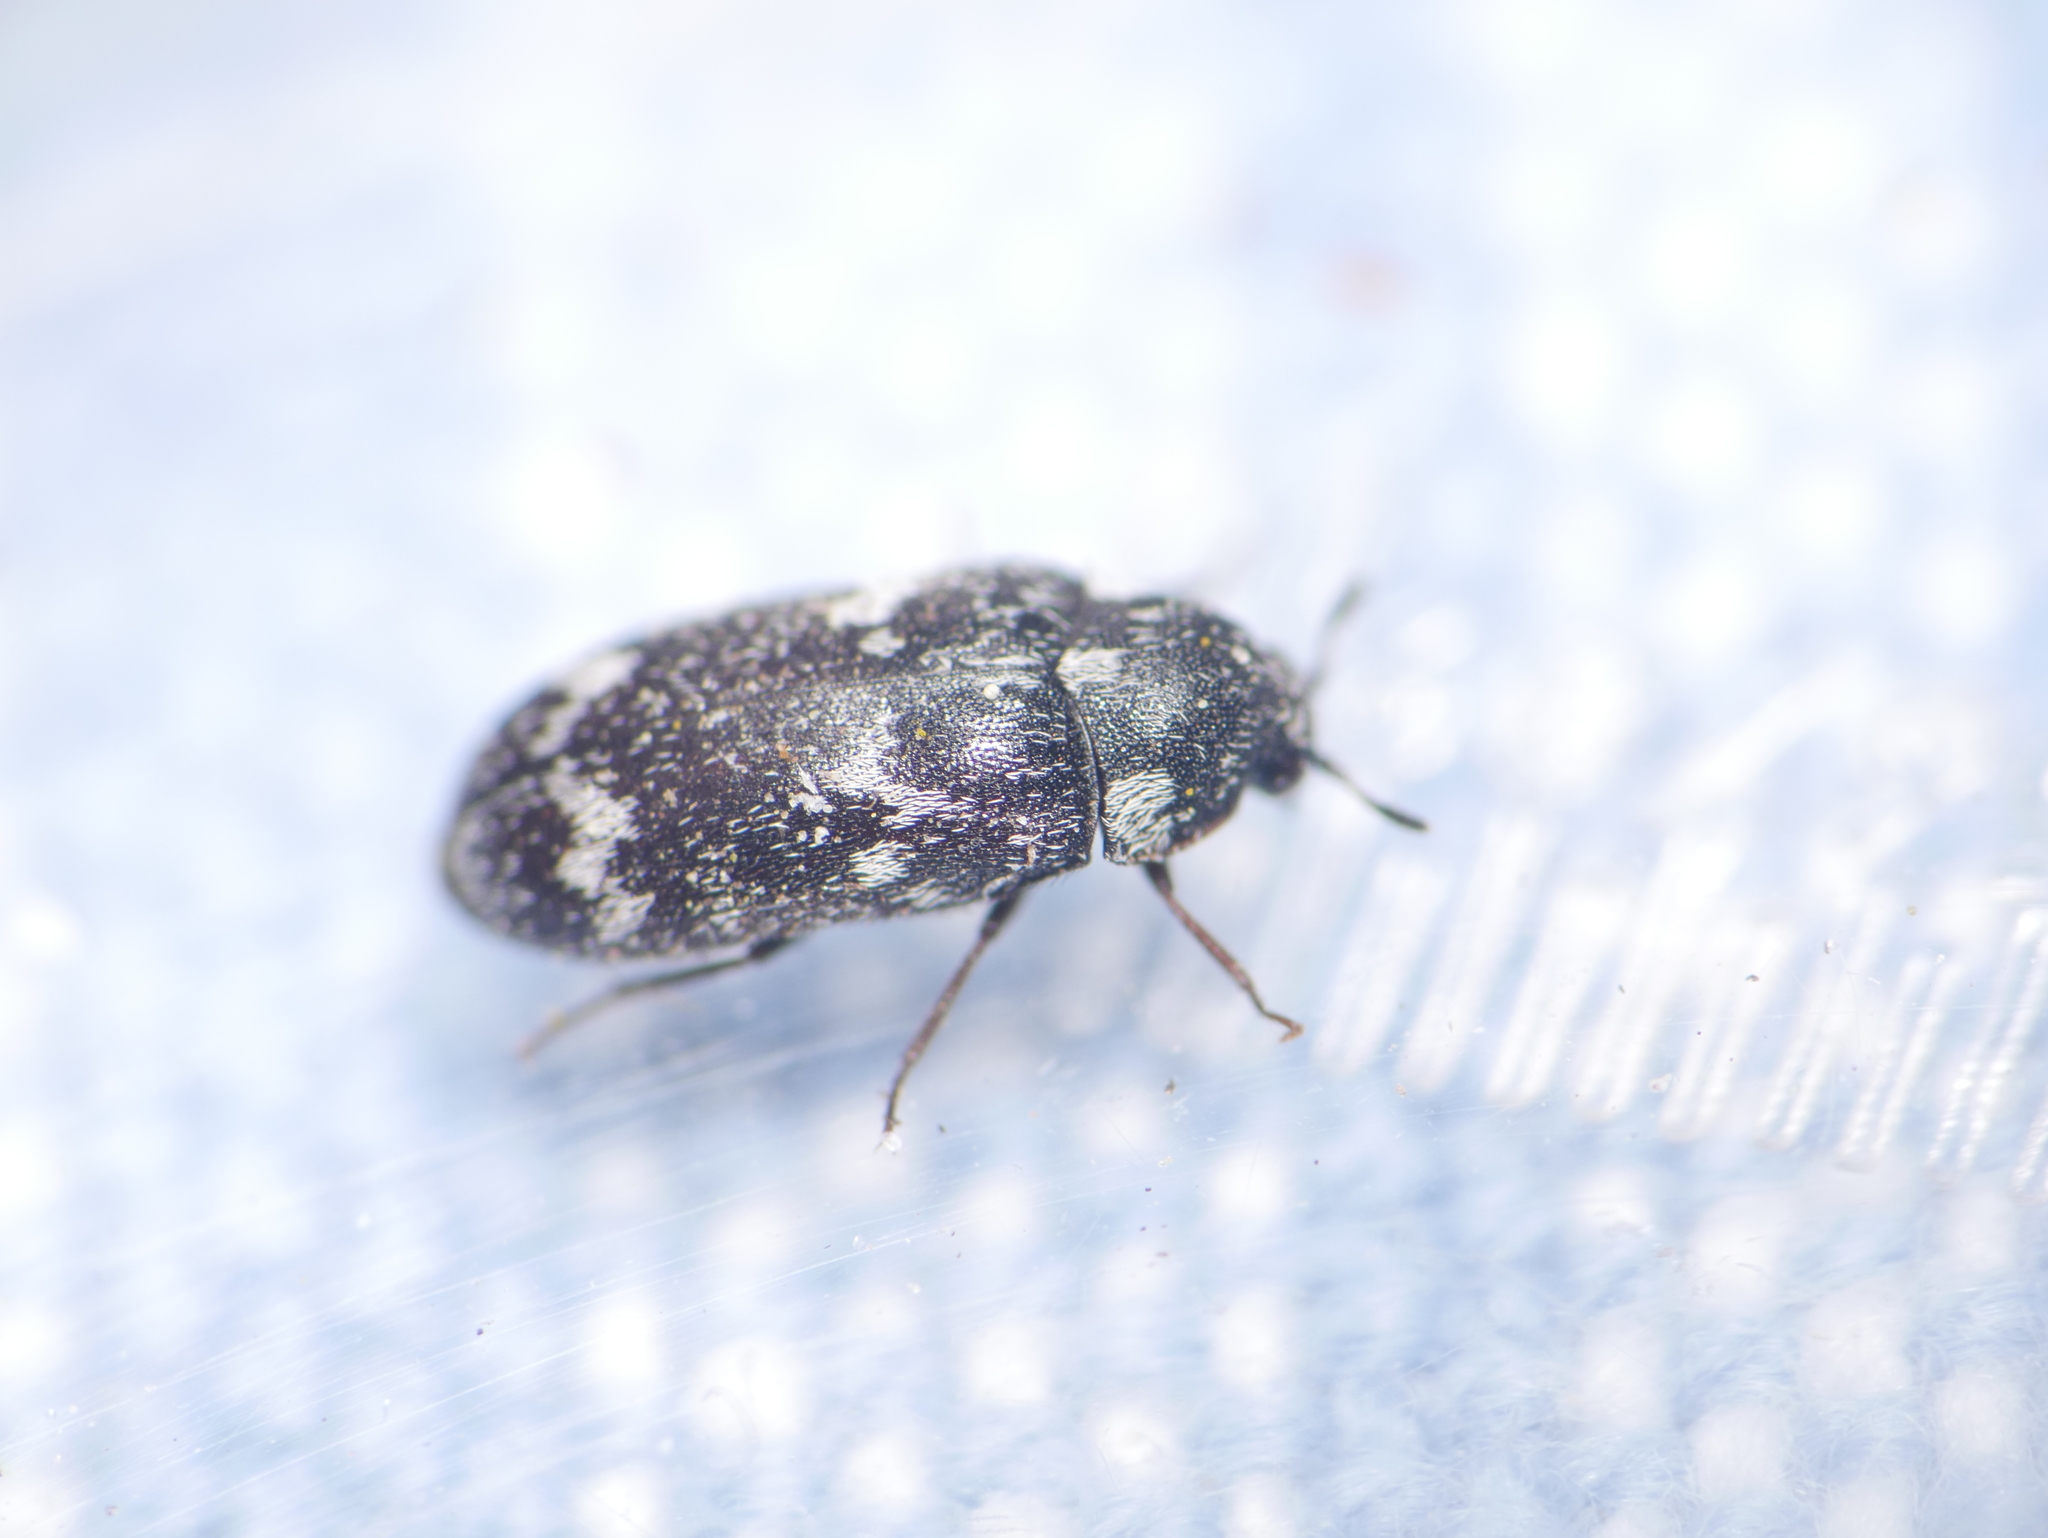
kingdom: Animalia
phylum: Arthropoda
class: Insecta
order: Coleoptera
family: Dermestidae
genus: Megatoma
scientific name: Megatoma undata
